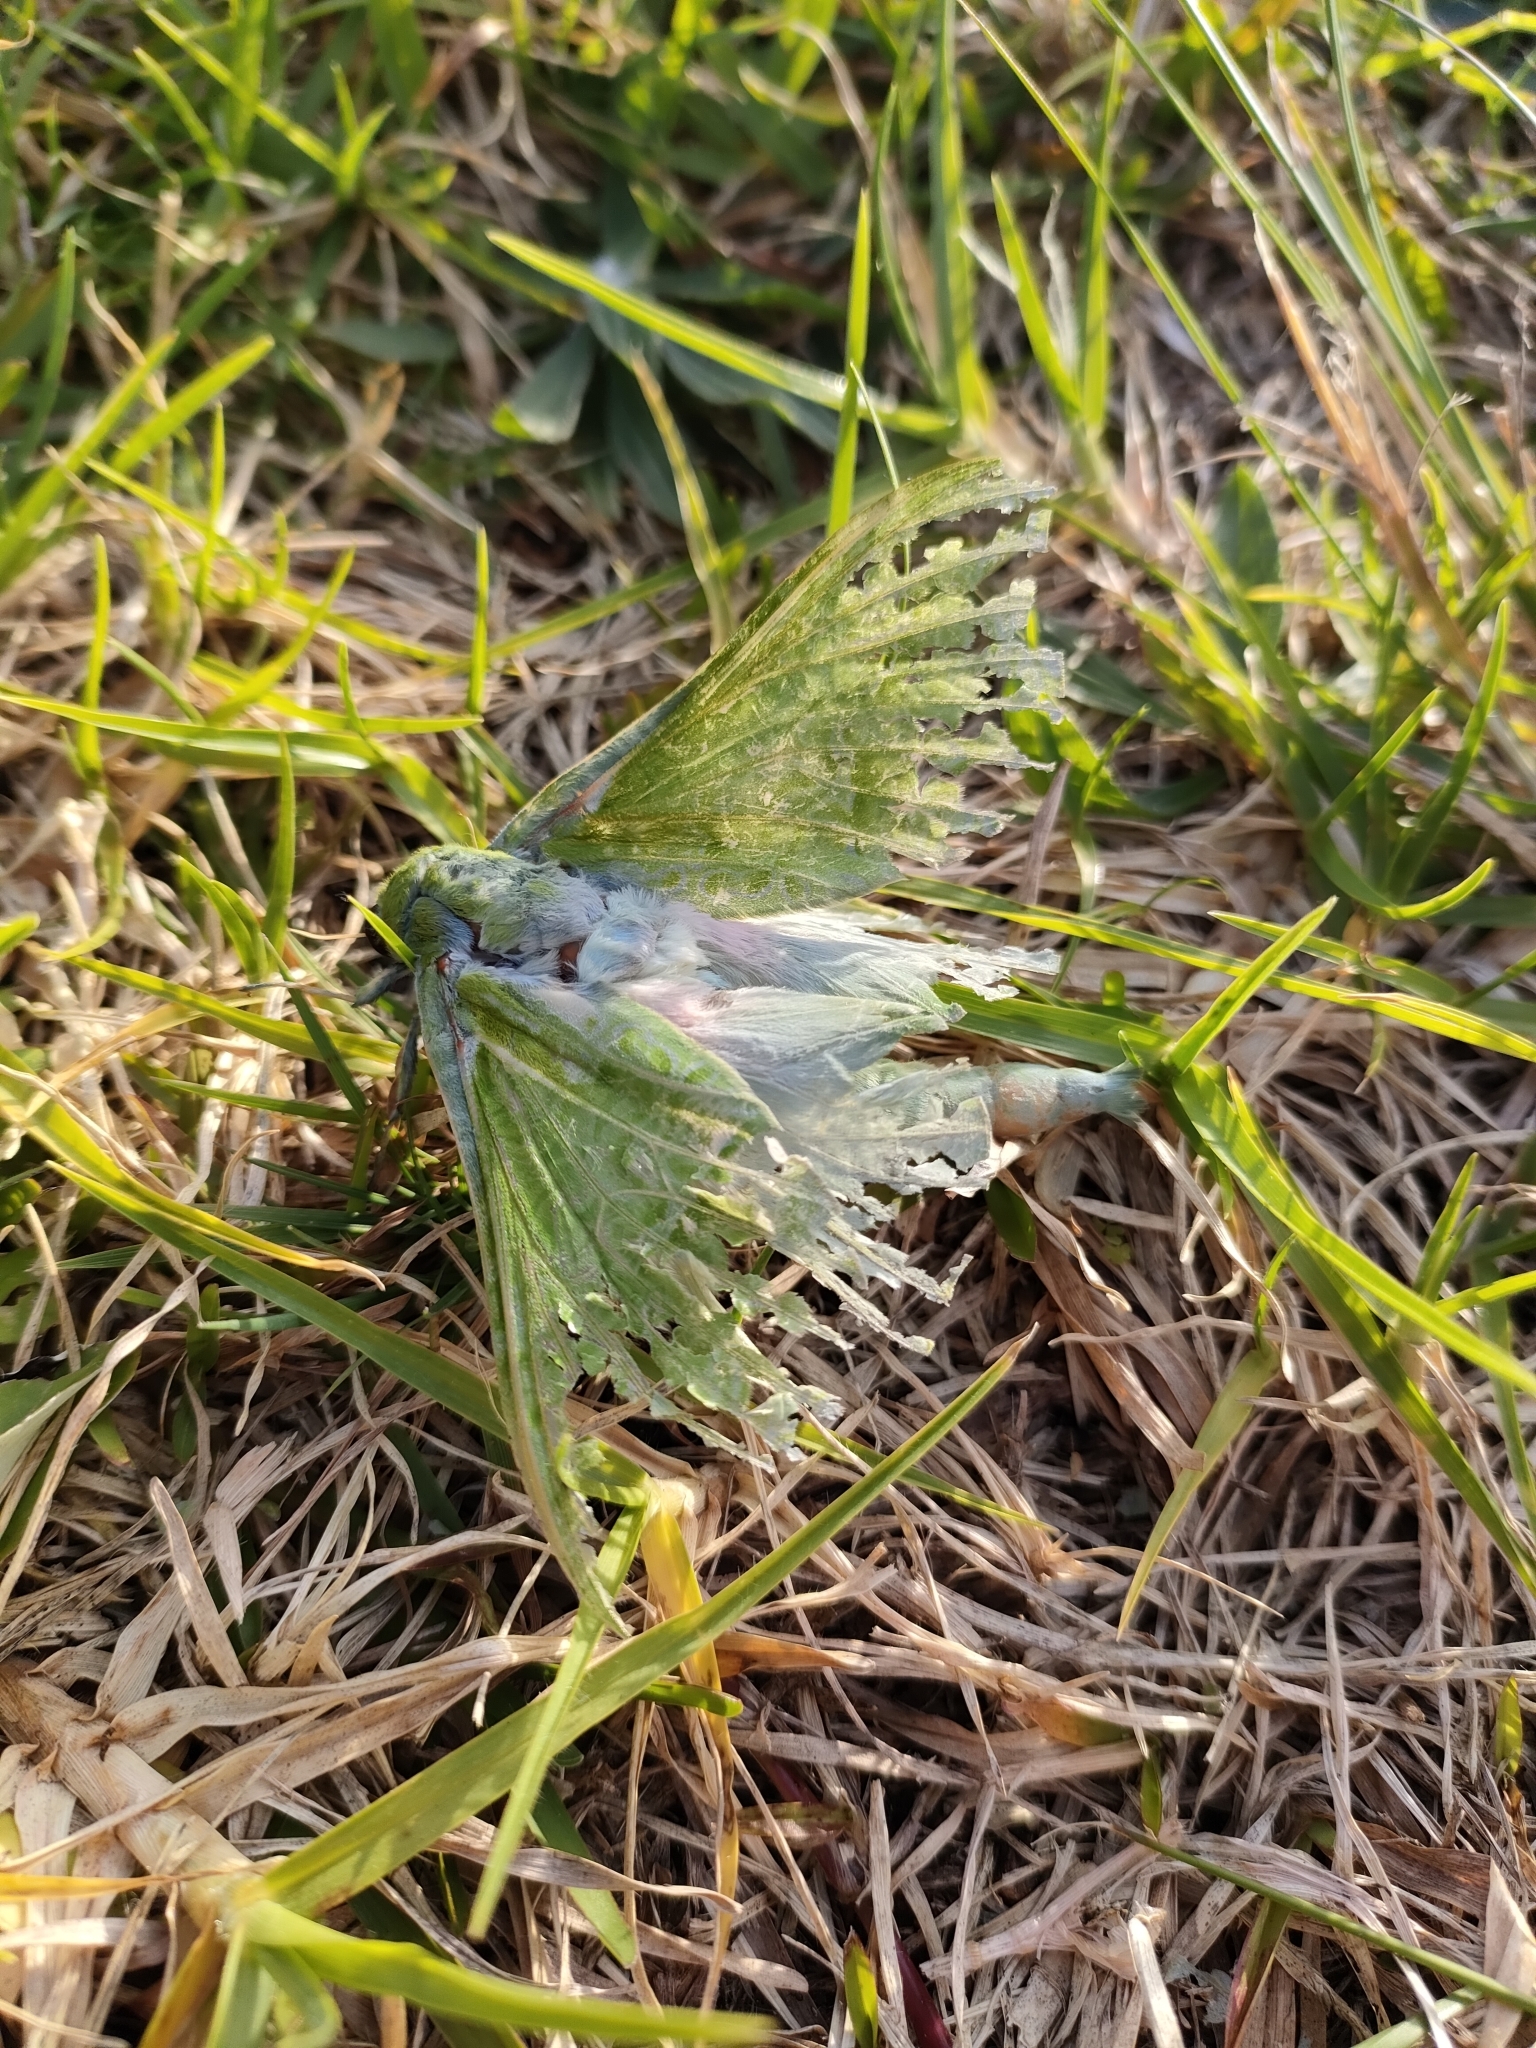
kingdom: Animalia
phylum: Arthropoda
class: Insecta
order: Lepidoptera
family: Hepialidae
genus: Aenetus
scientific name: Aenetus virescens
